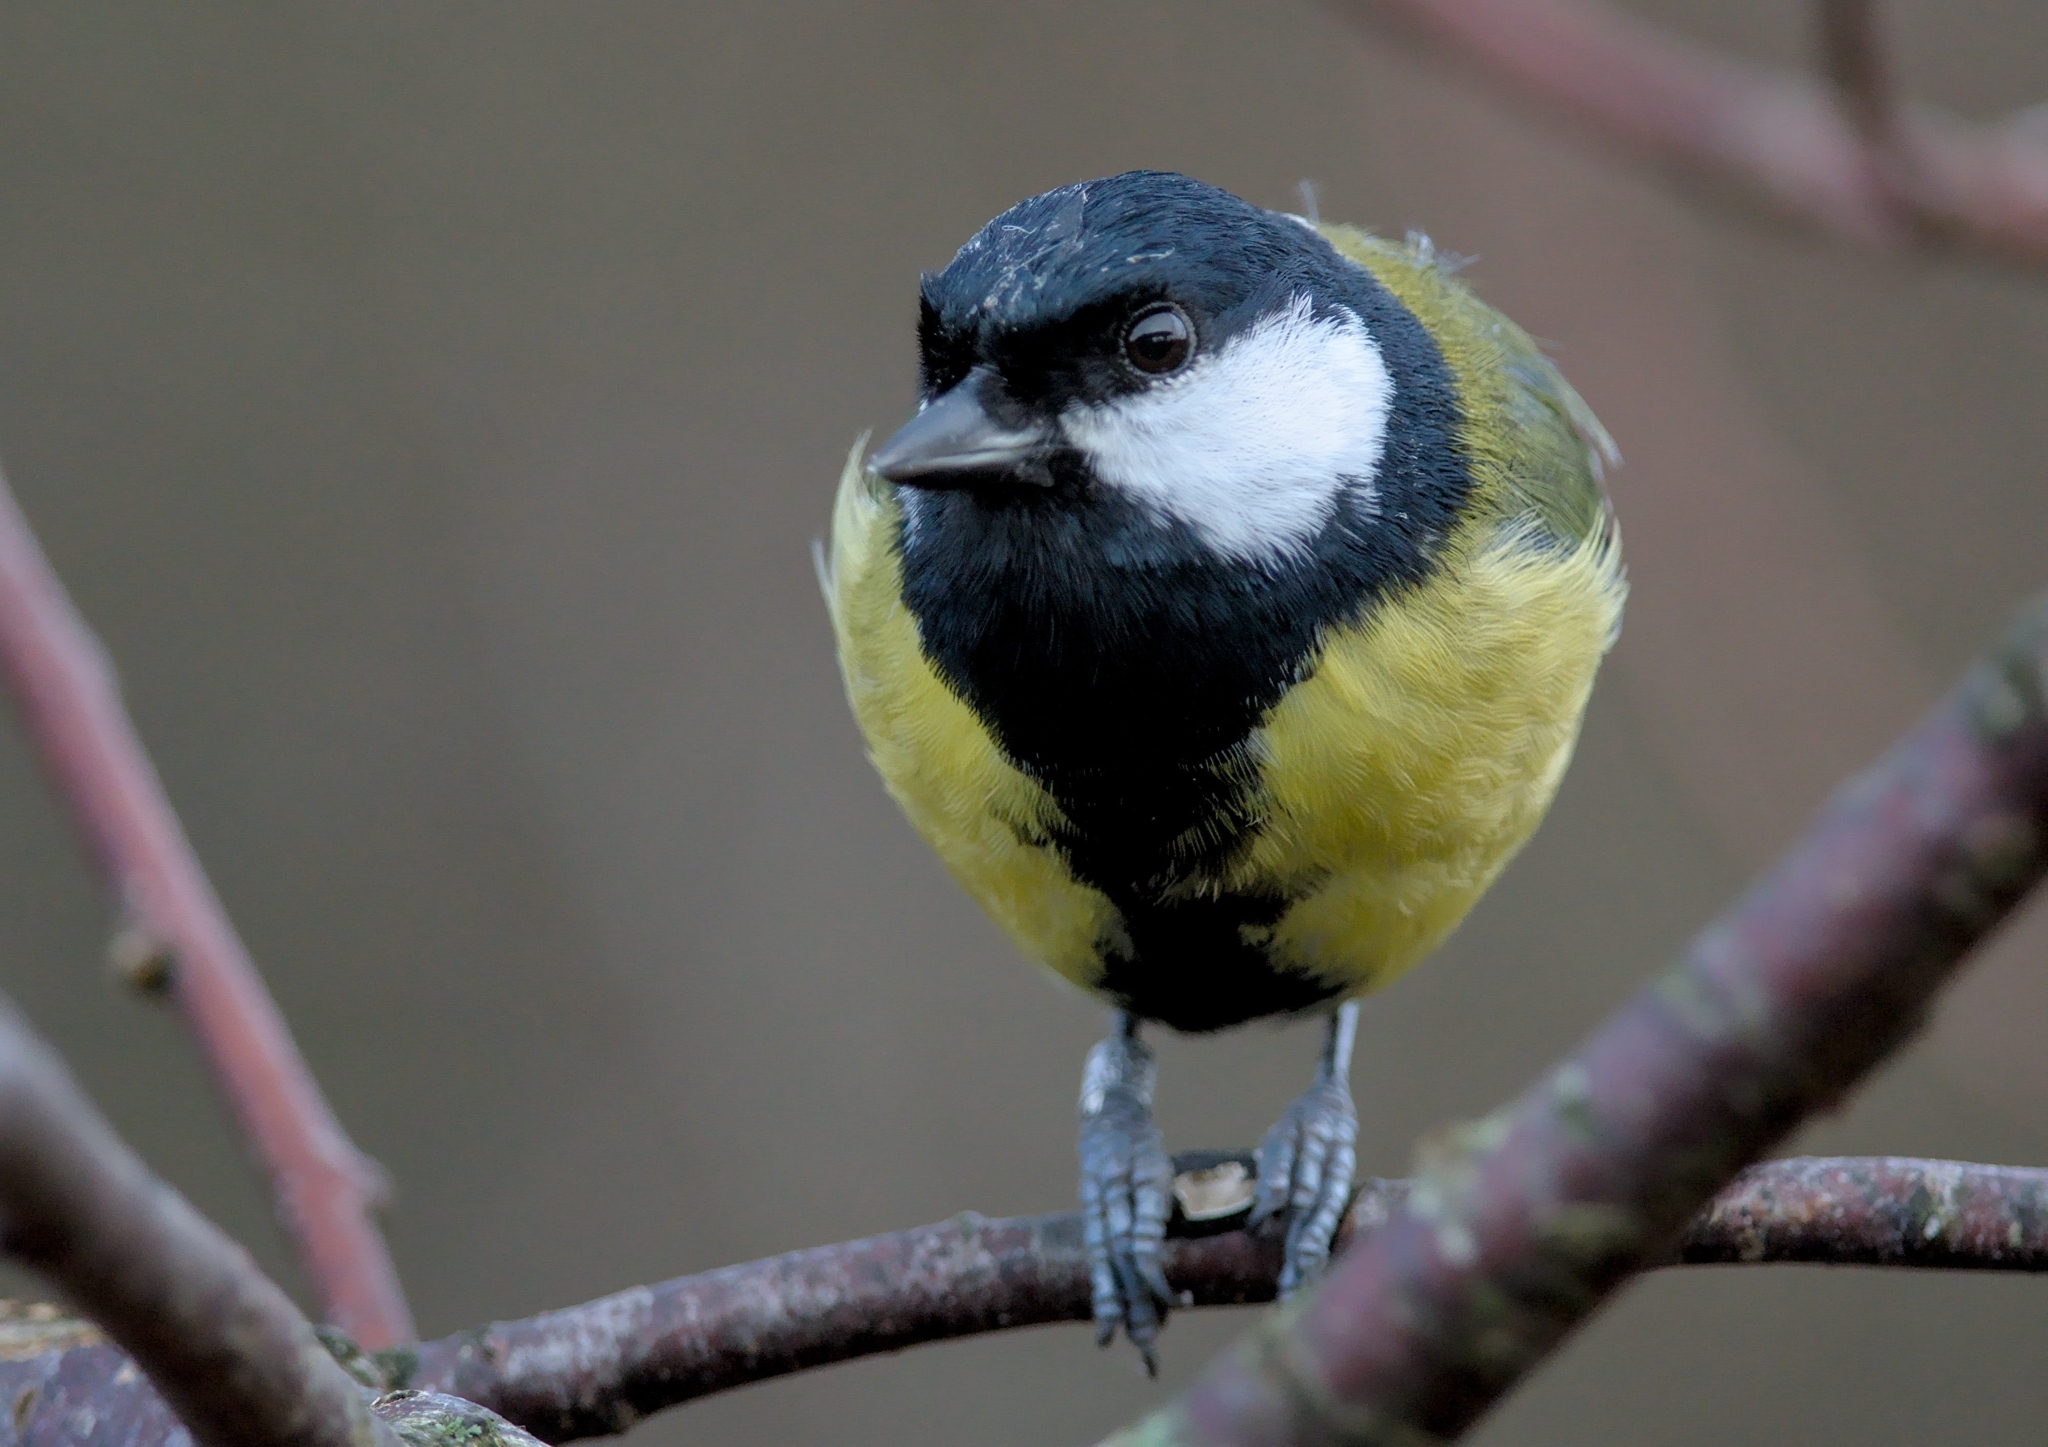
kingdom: Animalia
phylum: Chordata
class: Aves
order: Passeriformes
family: Paridae
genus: Parus
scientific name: Parus major
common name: Great tit
